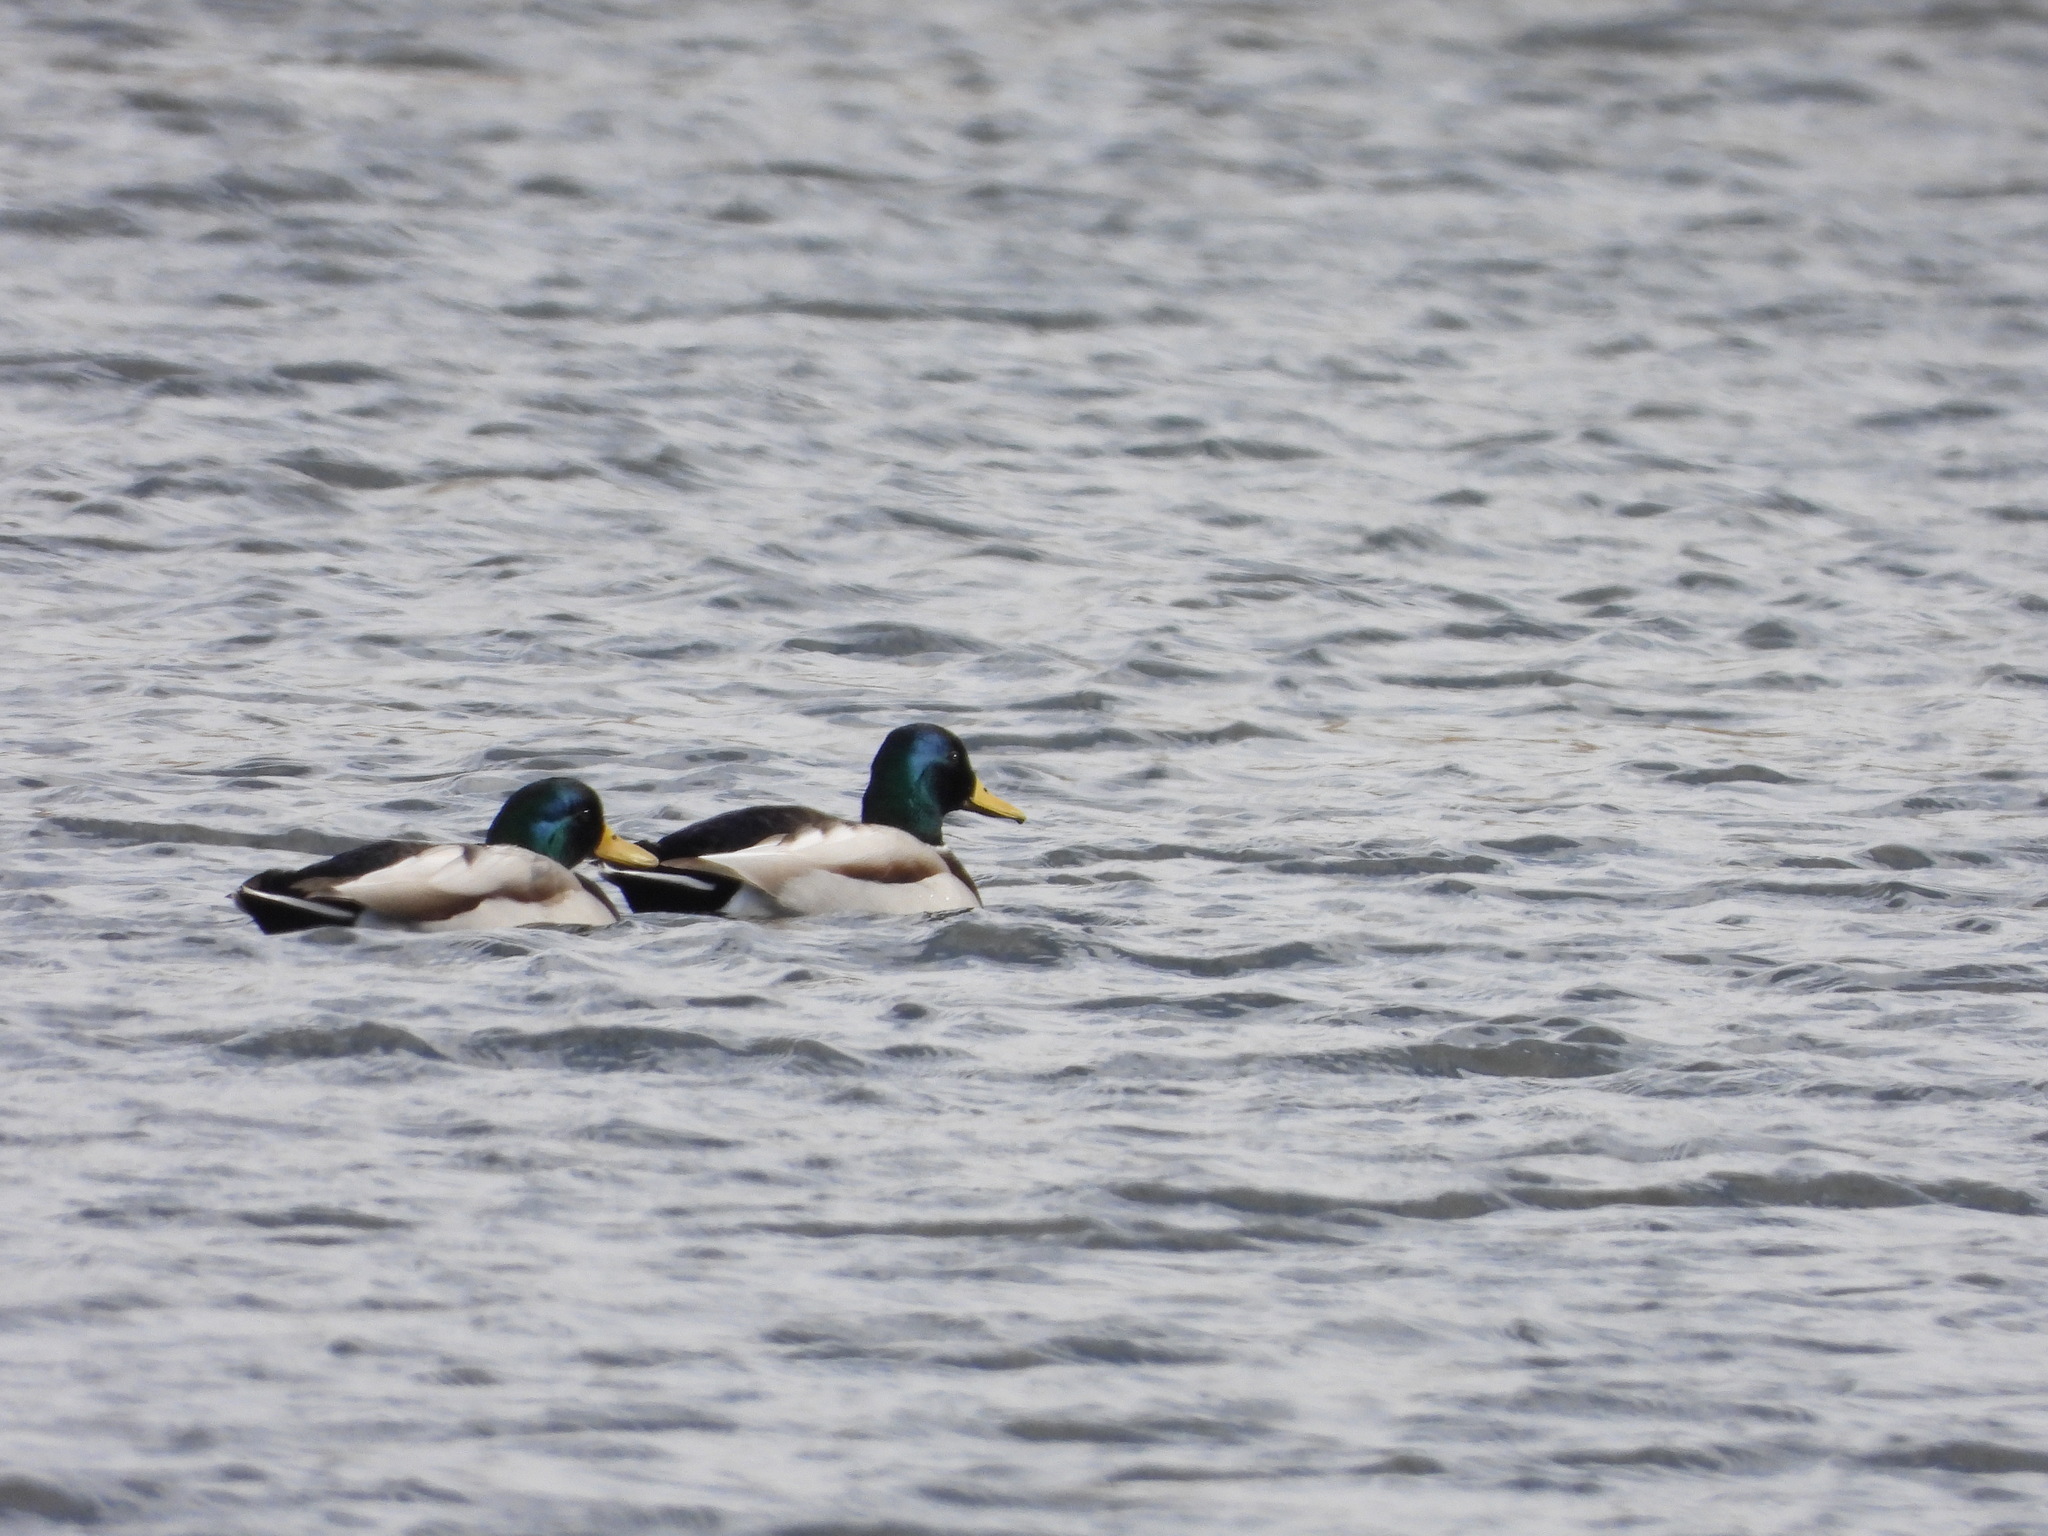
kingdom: Animalia
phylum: Chordata
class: Aves
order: Anseriformes
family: Anatidae
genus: Anas
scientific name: Anas platyrhynchos
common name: Mallard
